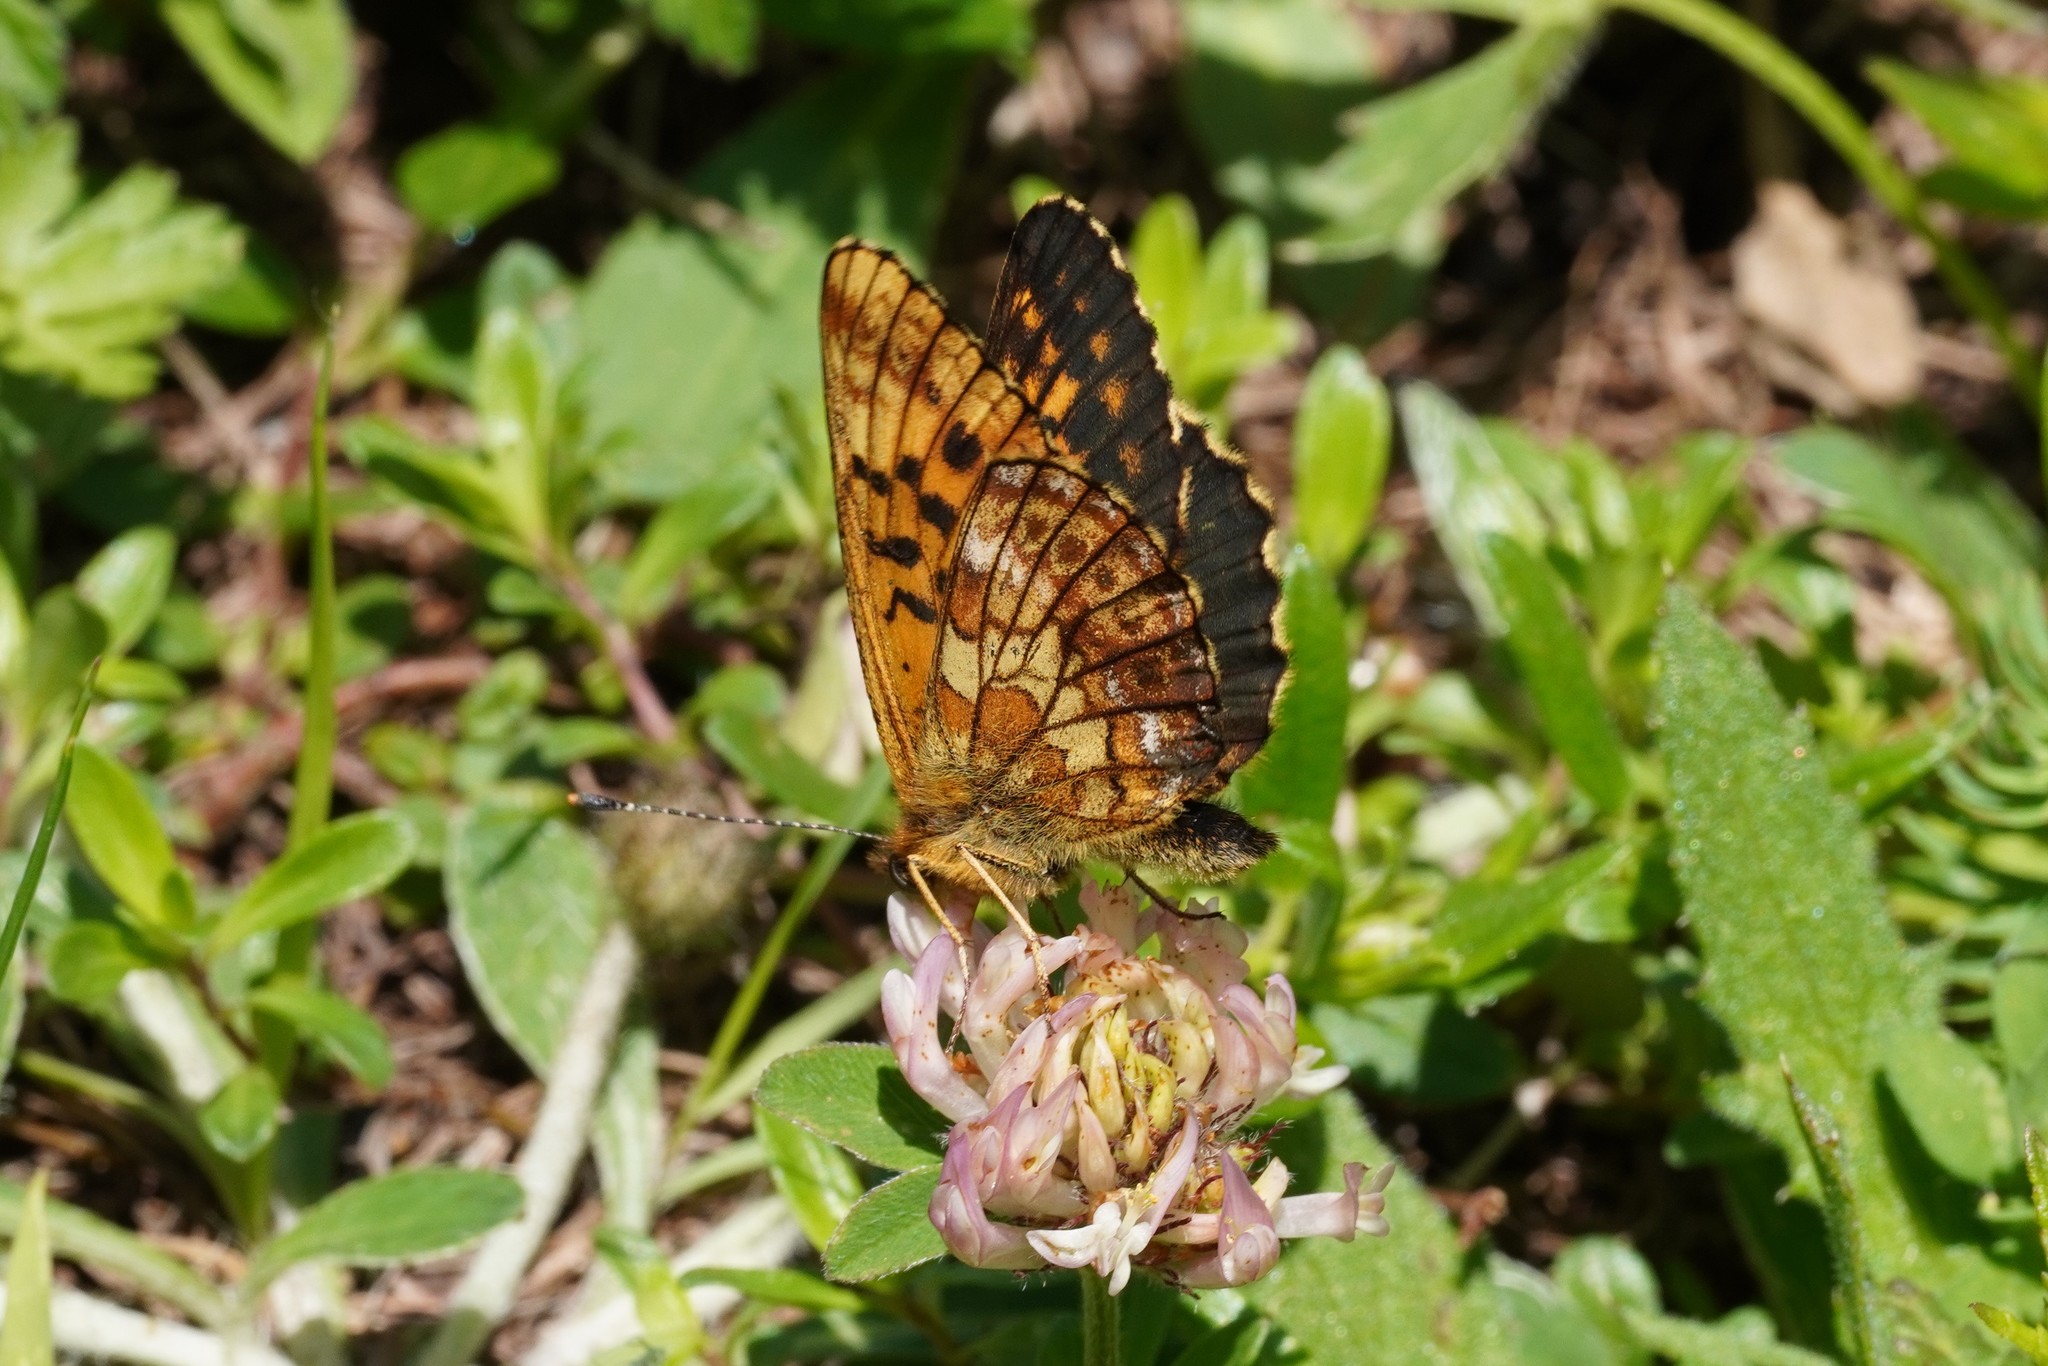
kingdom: Animalia
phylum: Arthropoda
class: Insecta
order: Lepidoptera
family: Nymphalidae
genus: Boloria
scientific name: Boloria thore
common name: Thor's fritillary
